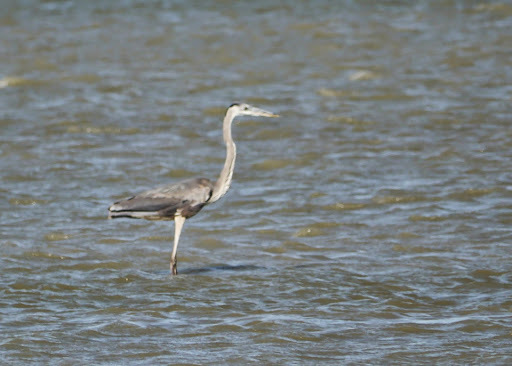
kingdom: Animalia
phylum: Chordata
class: Aves
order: Pelecaniformes
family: Ardeidae
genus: Ardea
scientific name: Ardea herodias
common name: Great blue heron
